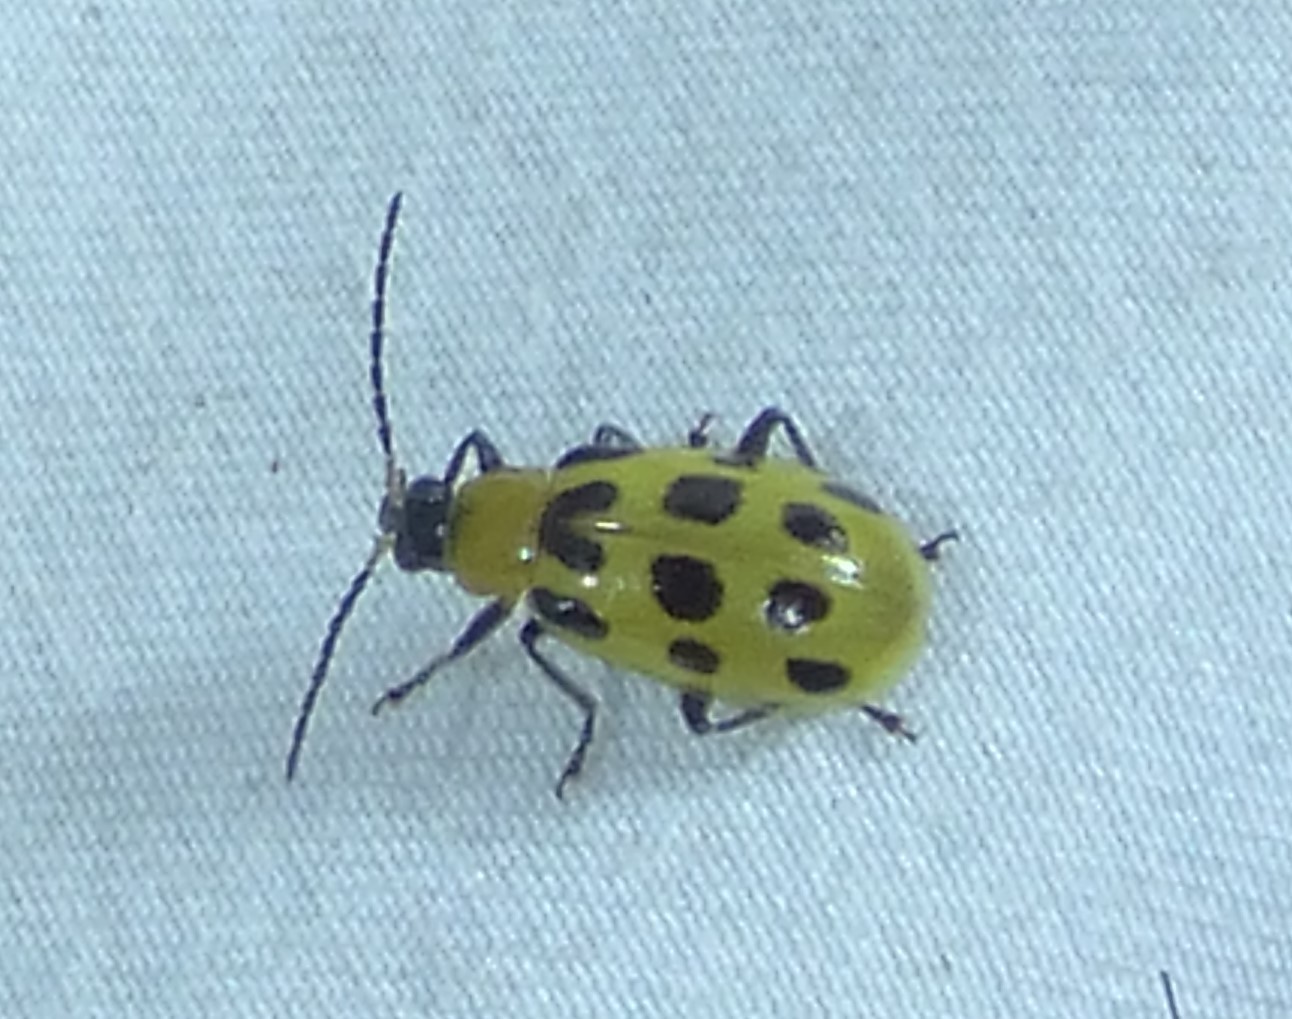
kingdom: Animalia
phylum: Arthropoda
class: Insecta
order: Coleoptera
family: Chrysomelidae
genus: Diabrotica
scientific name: Diabrotica undecimpunctata
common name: Spotted cucumber beetle
